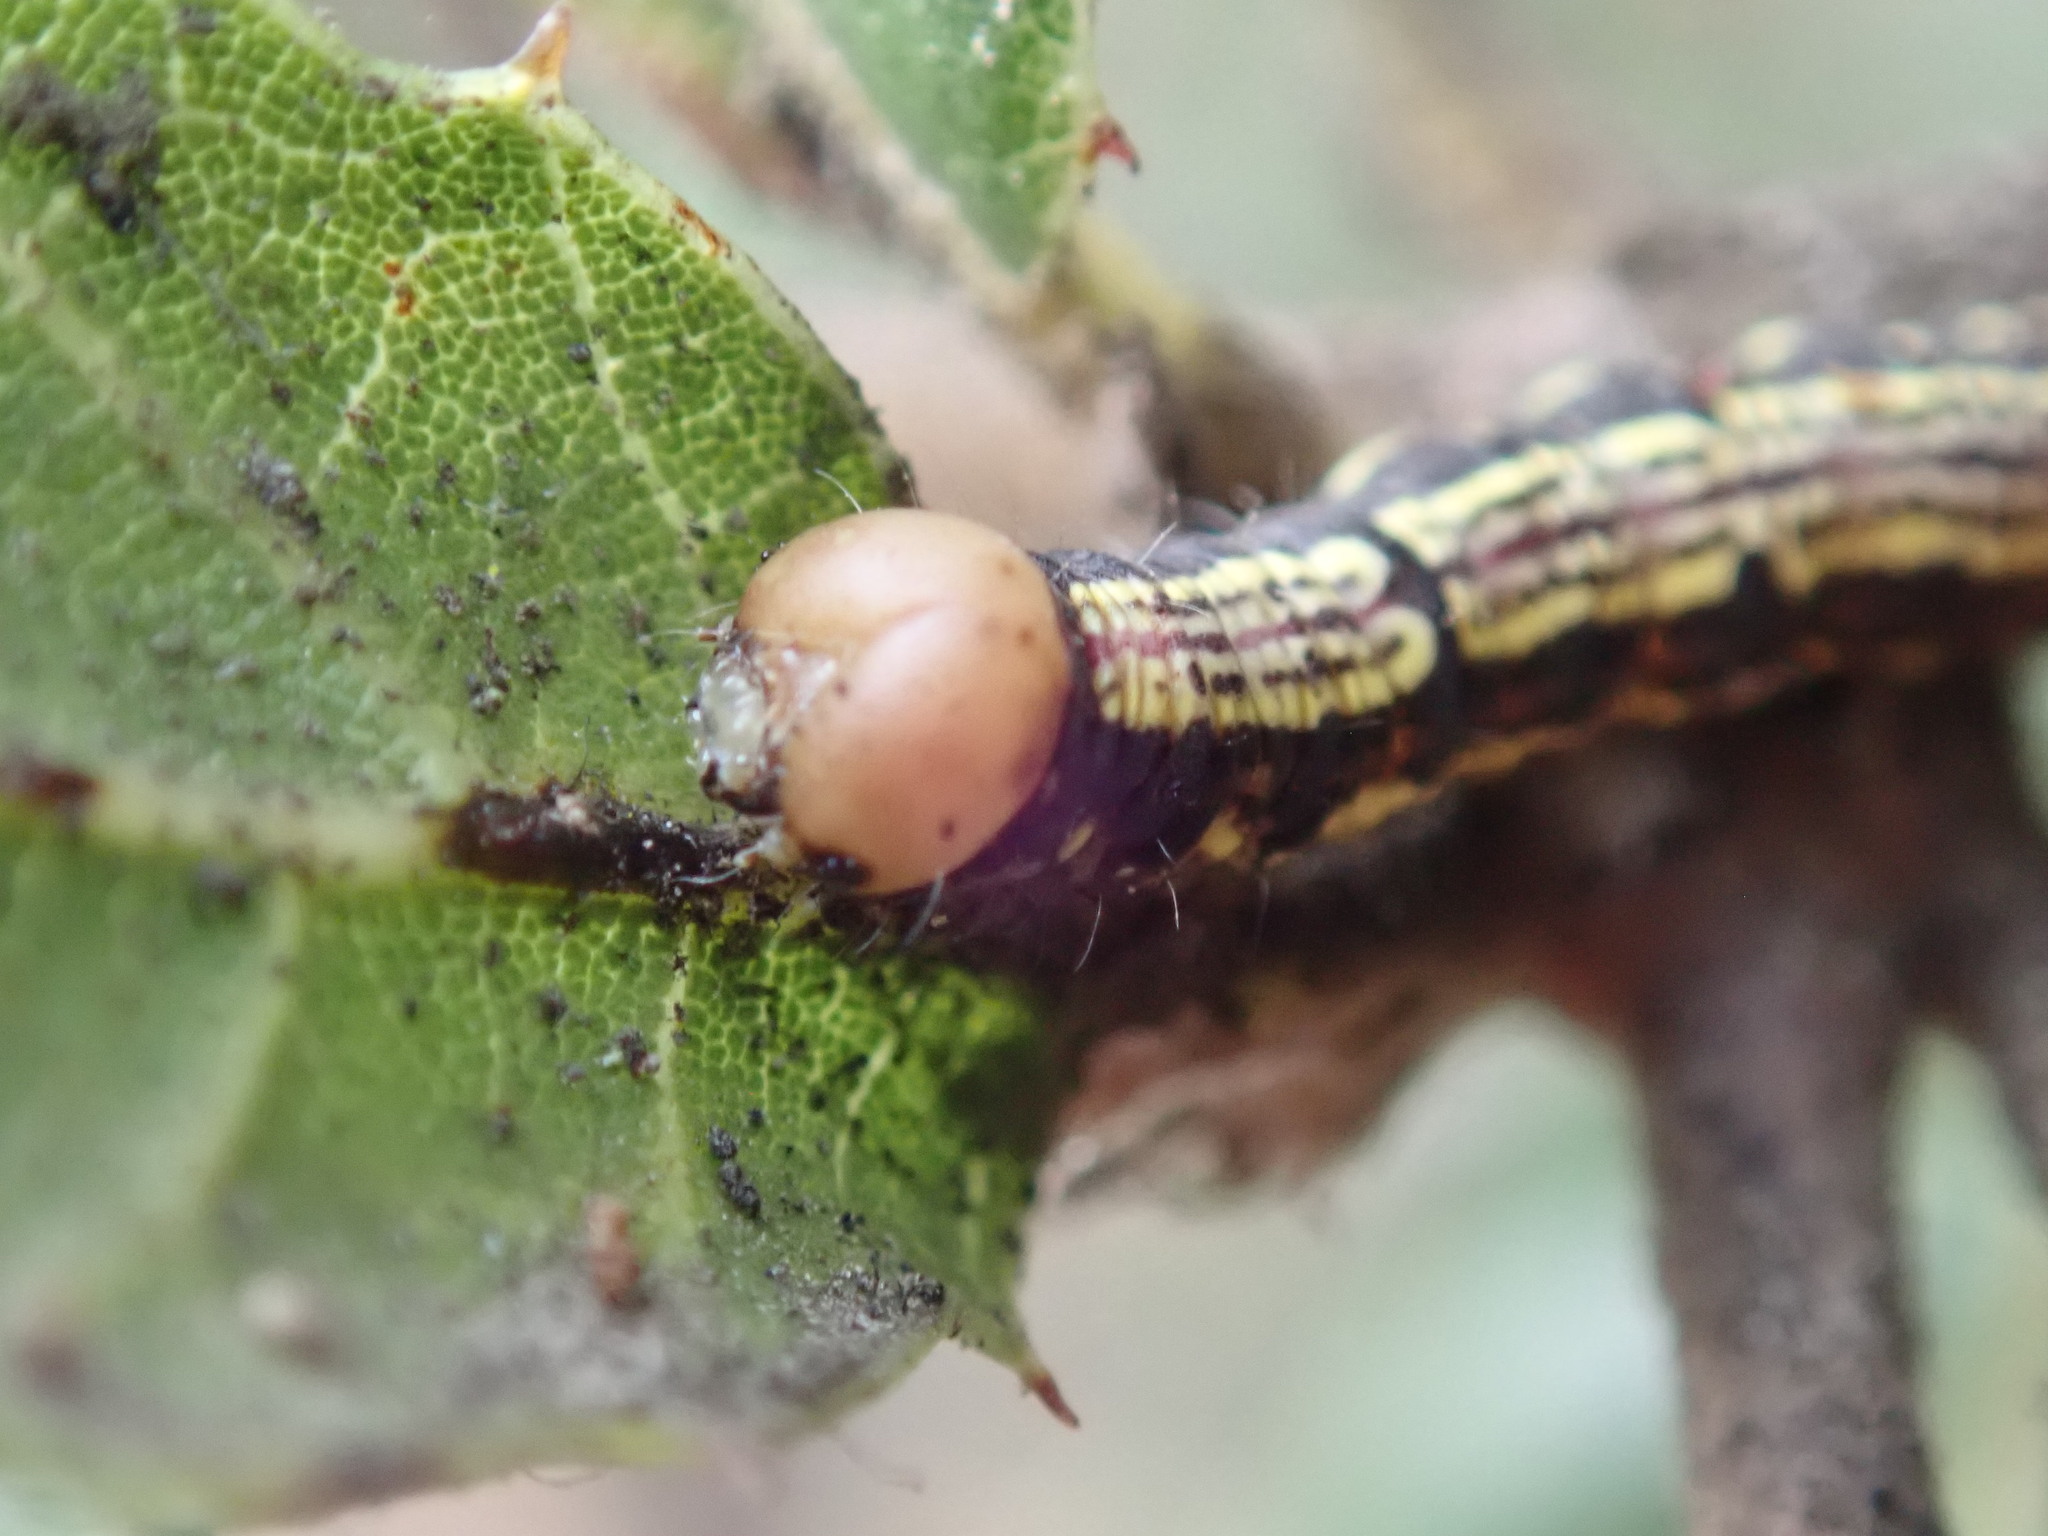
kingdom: Animalia
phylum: Arthropoda
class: Insecta
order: Lepidoptera
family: Notodontidae
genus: Phryganidia
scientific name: Phryganidia californica
